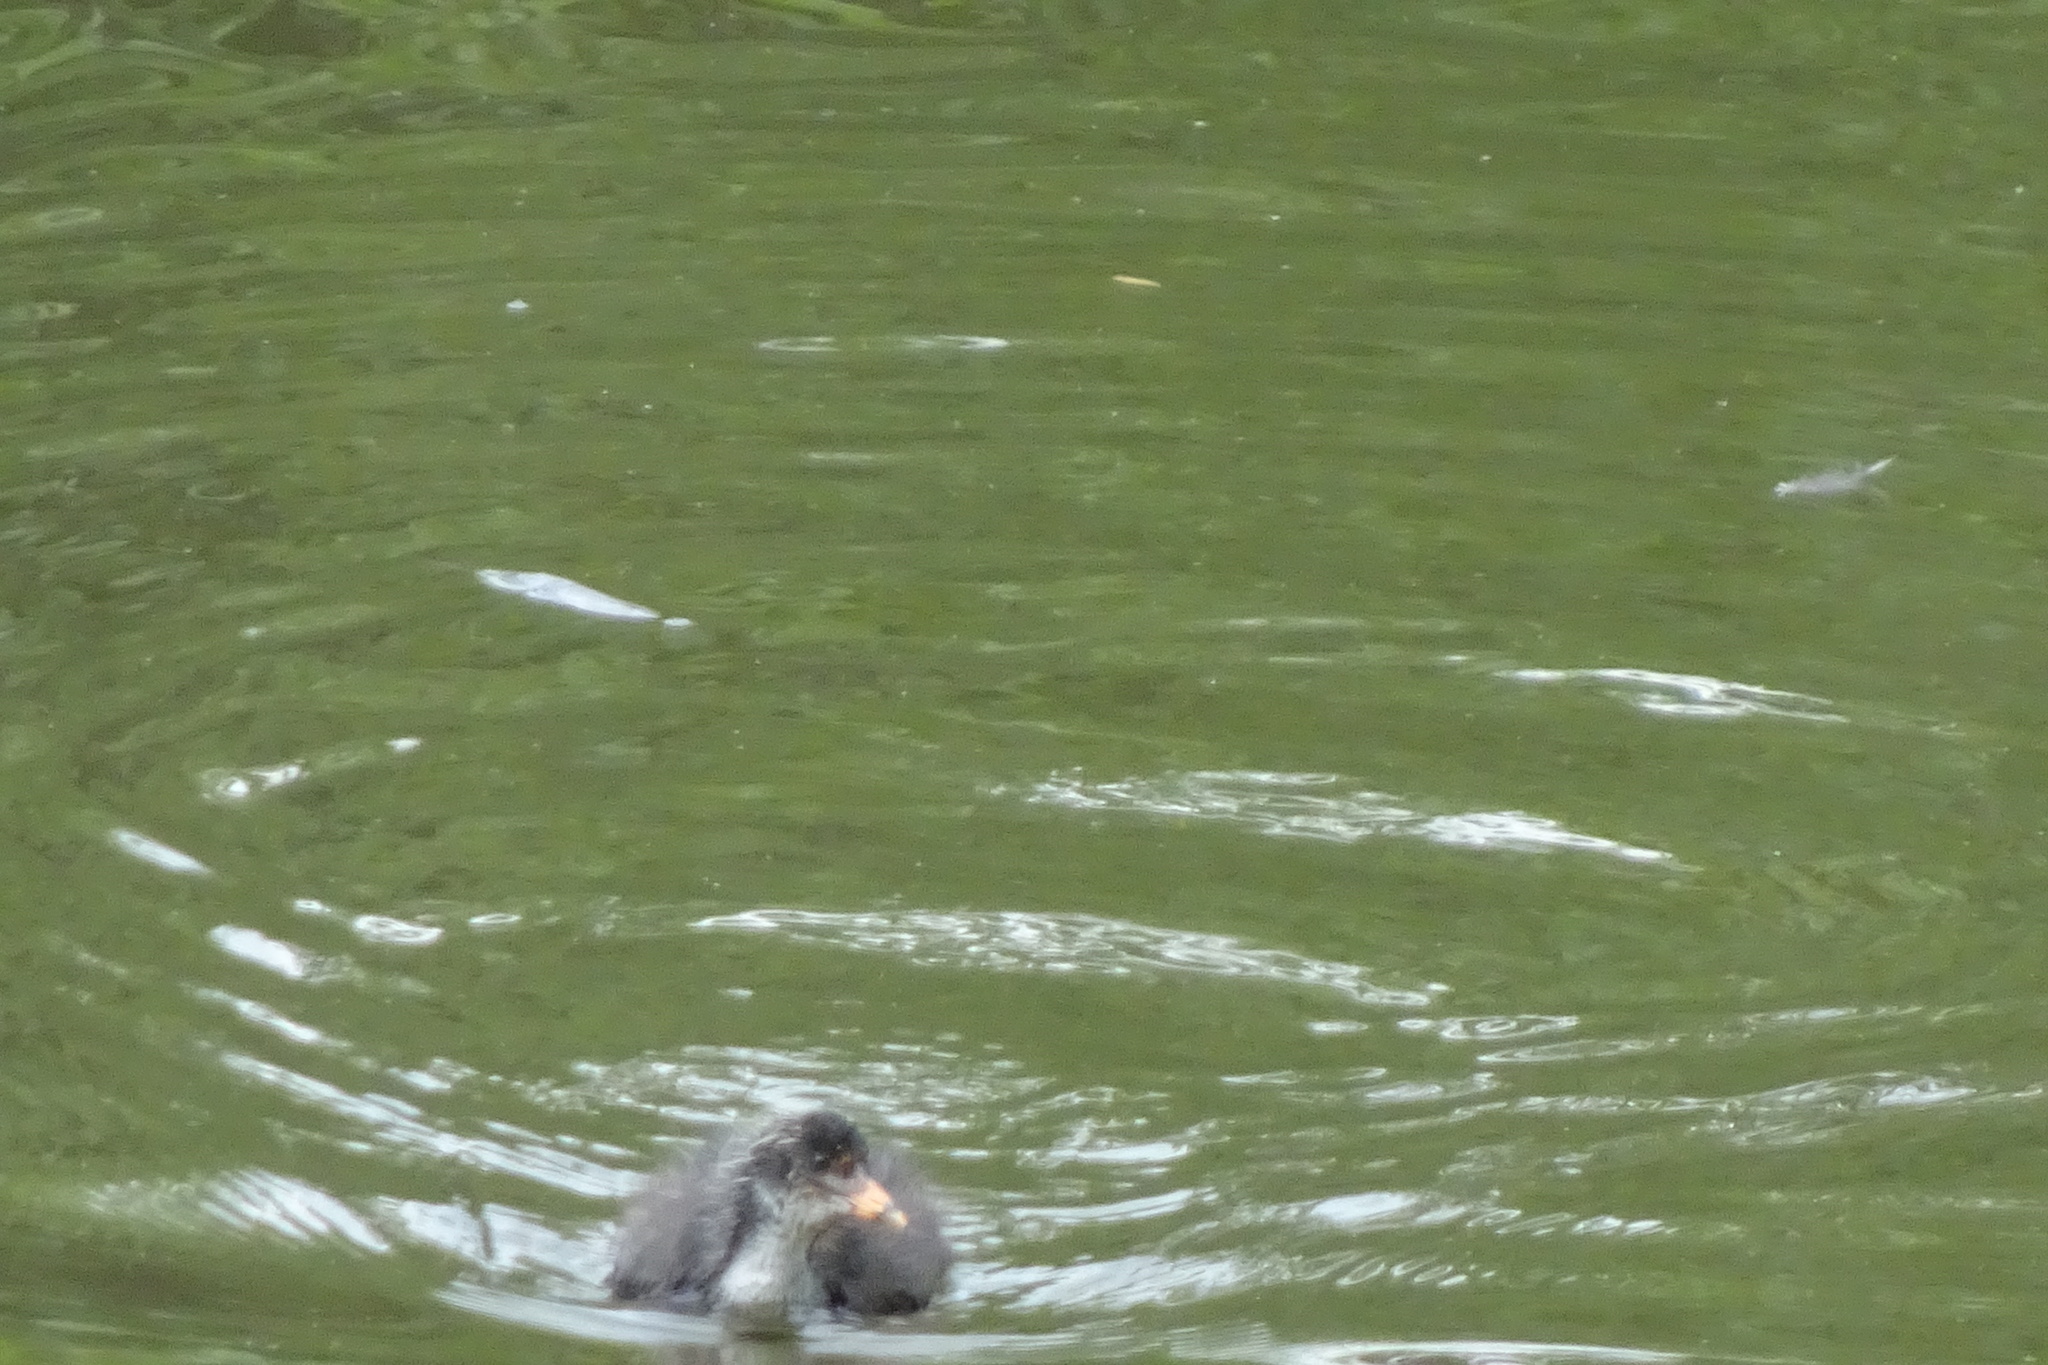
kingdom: Animalia
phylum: Chordata
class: Aves
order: Gruiformes
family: Rallidae
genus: Fulica
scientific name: Fulica atra
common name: Eurasian coot
